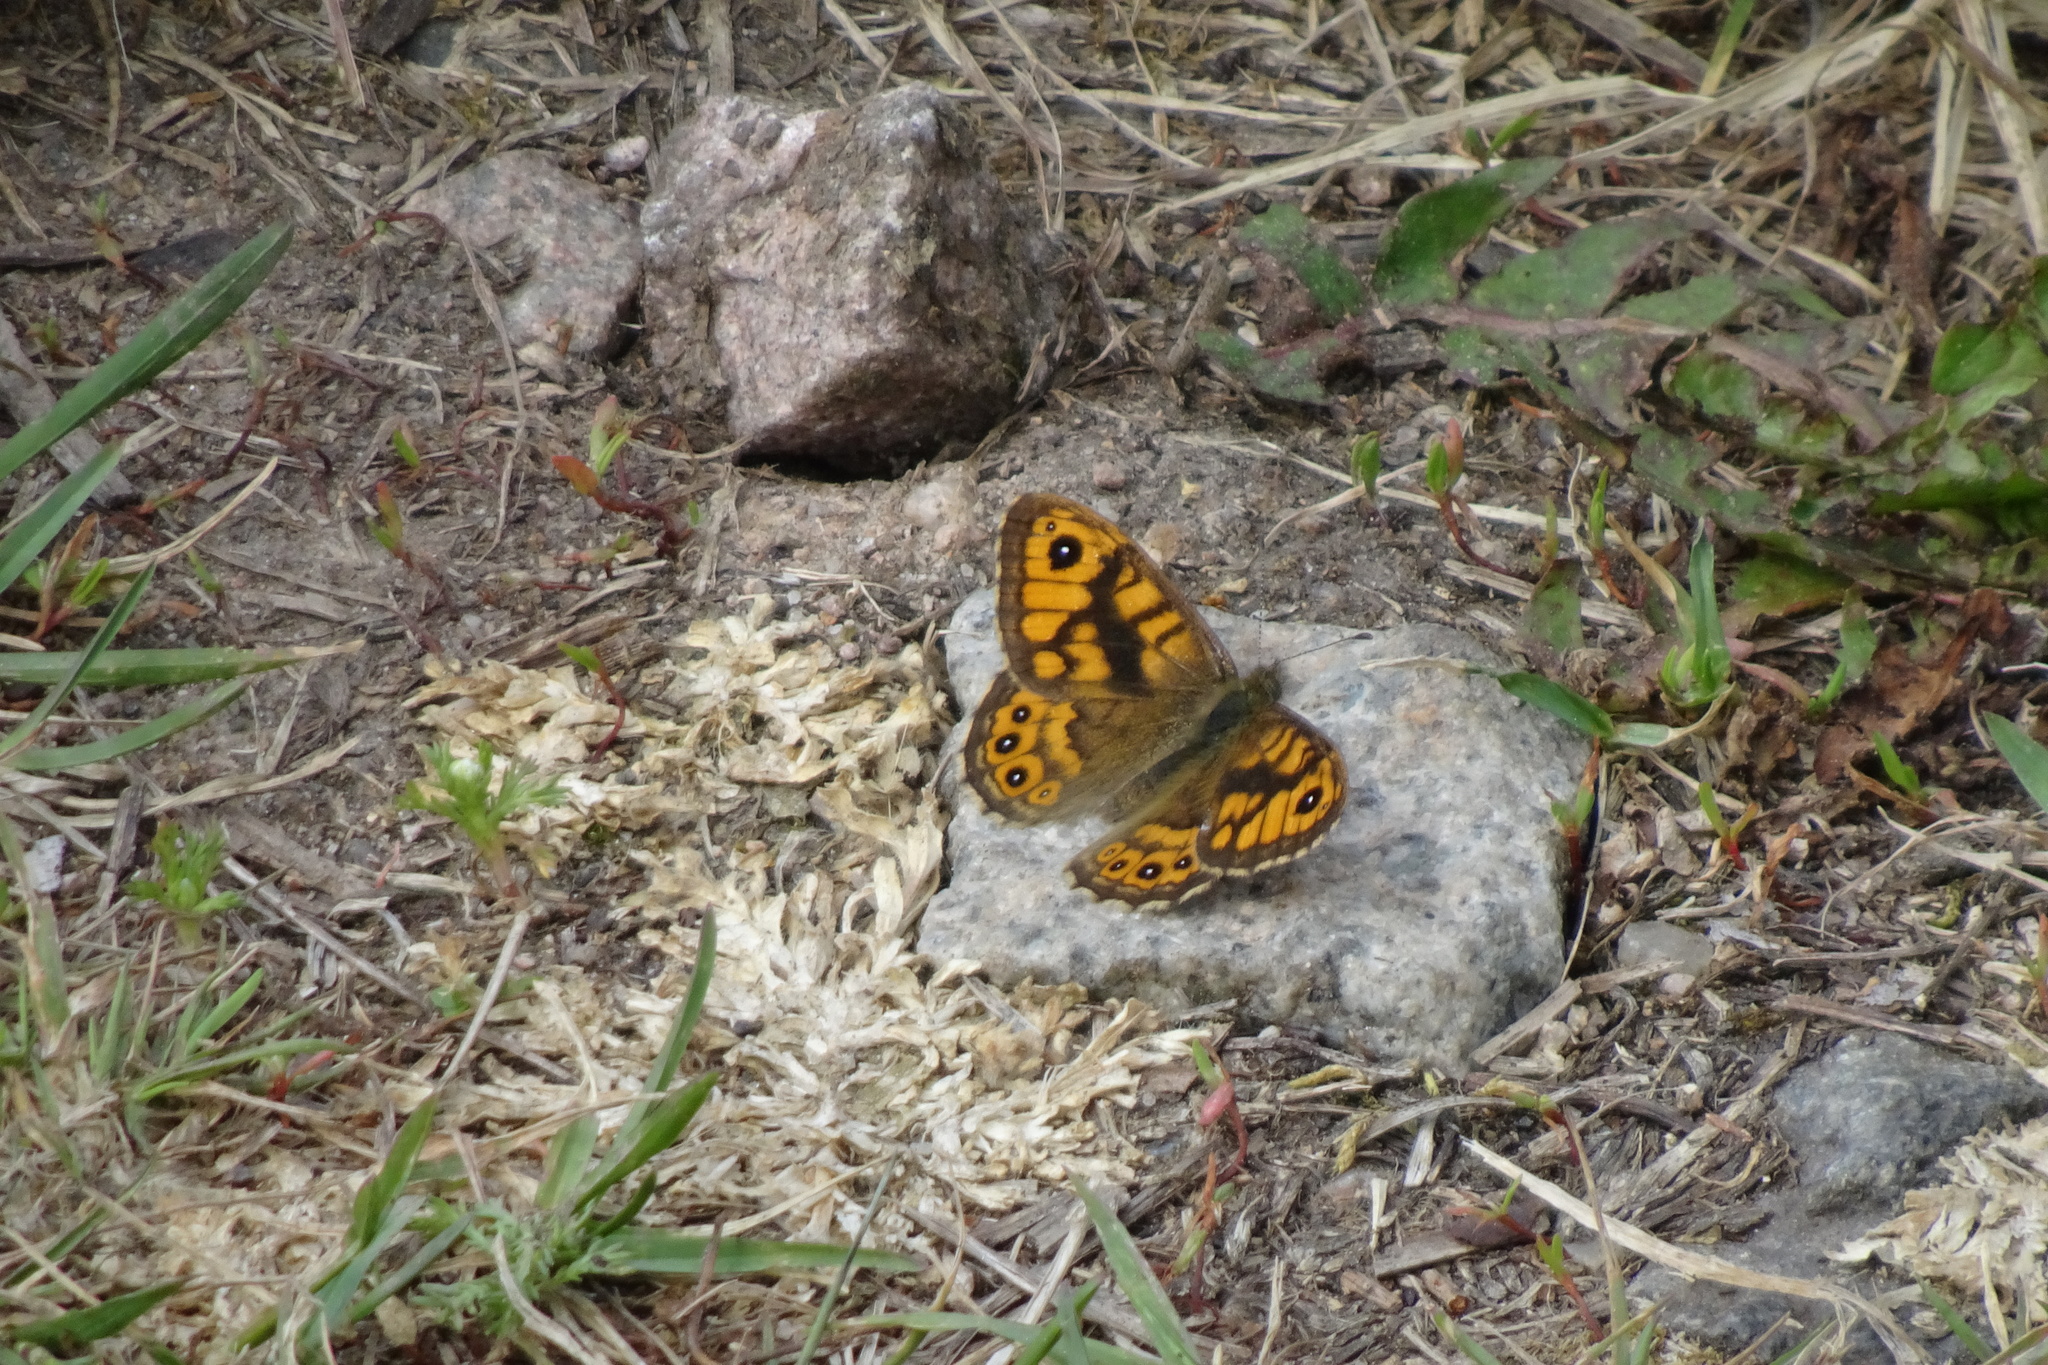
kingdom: Animalia
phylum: Arthropoda
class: Insecta
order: Lepidoptera
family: Nymphalidae
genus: Pararge
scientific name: Pararge Lasiommata megera
